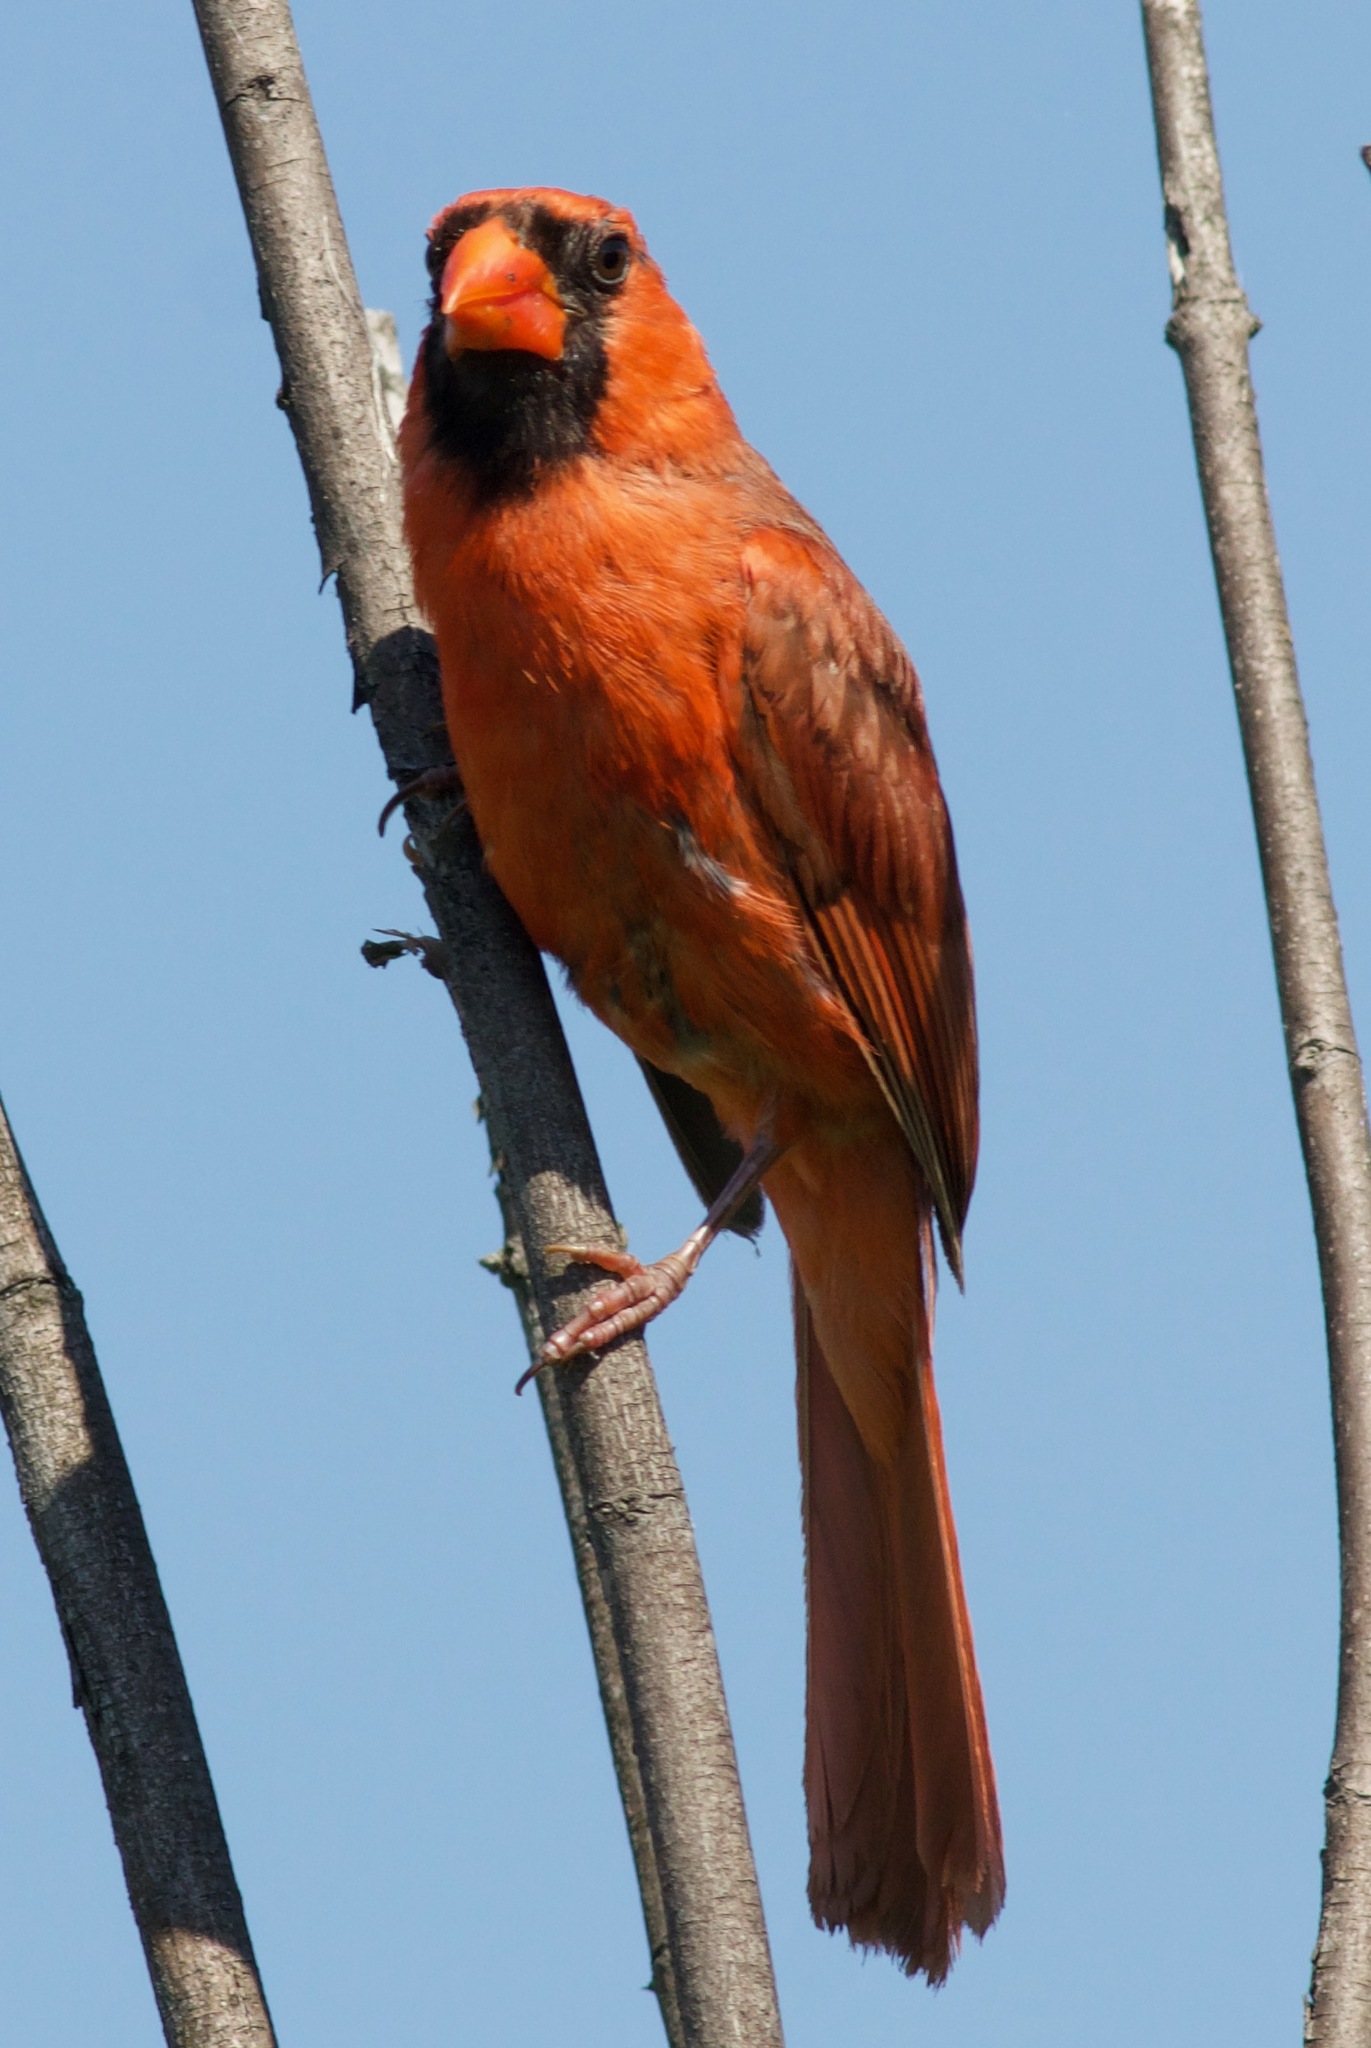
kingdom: Animalia
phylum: Chordata
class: Aves
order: Passeriformes
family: Cardinalidae
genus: Cardinalis
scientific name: Cardinalis cardinalis
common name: Northern cardinal
